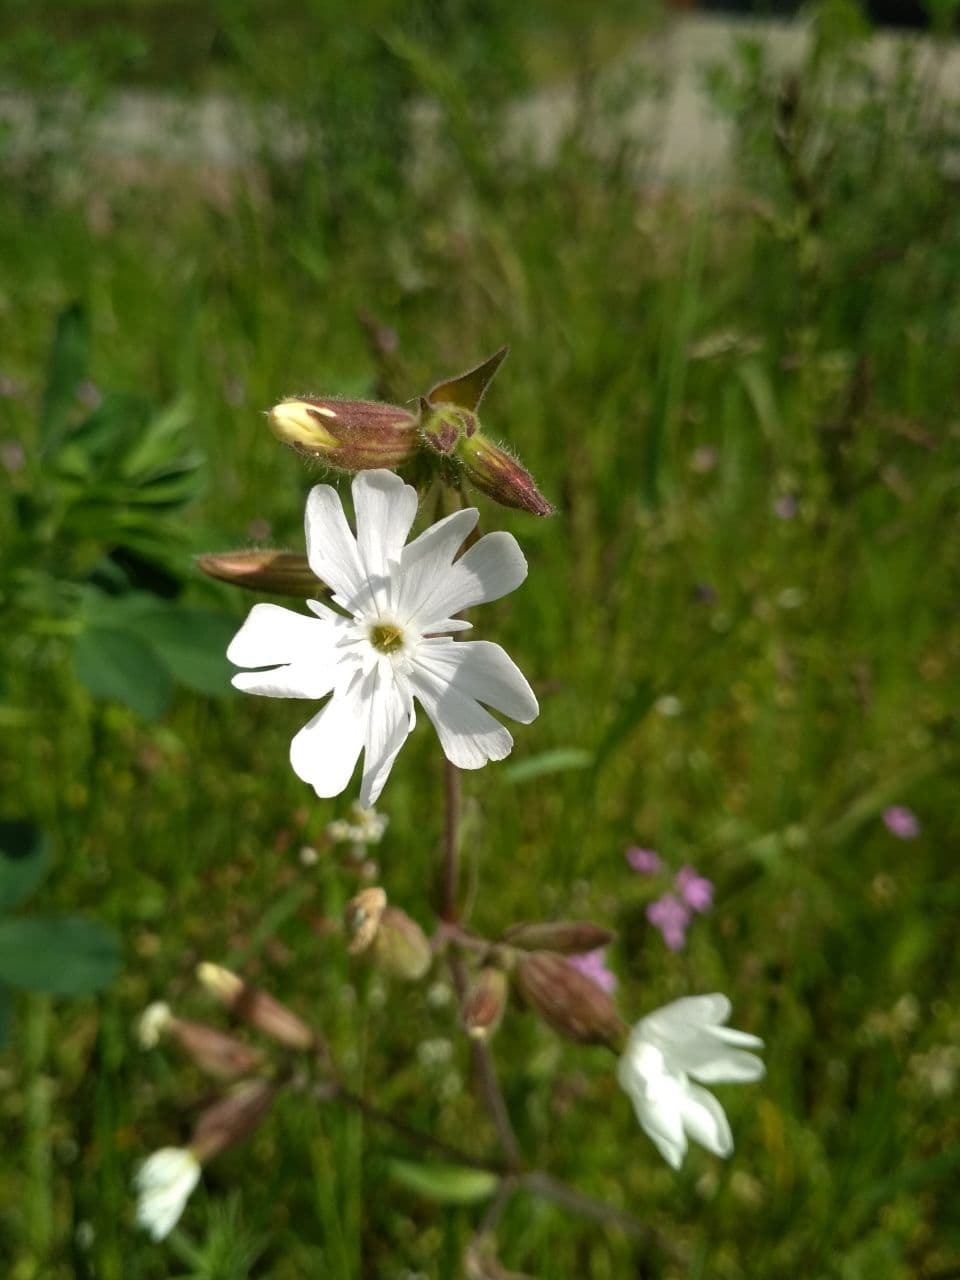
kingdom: Plantae
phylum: Tracheophyta
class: Magnoliopsida
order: Caryophyllales
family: Caryophyllaceae
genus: Silene
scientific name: Silene latifolia
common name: White campion
